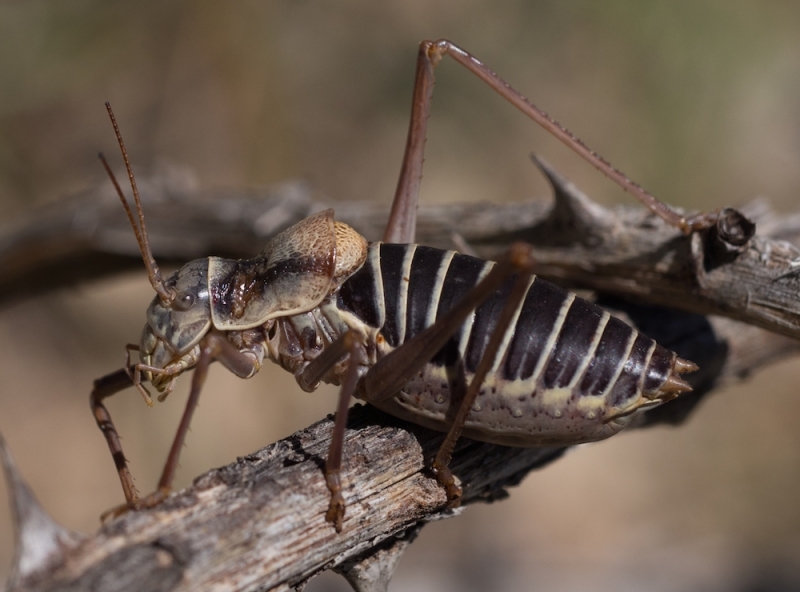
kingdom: Animalia
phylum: Arthropoda
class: Insecta
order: Orthoptera
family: Tettigoniidae
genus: Ephippiger
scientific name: Ephippiger diurnus
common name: Western saddle bush-cricket
